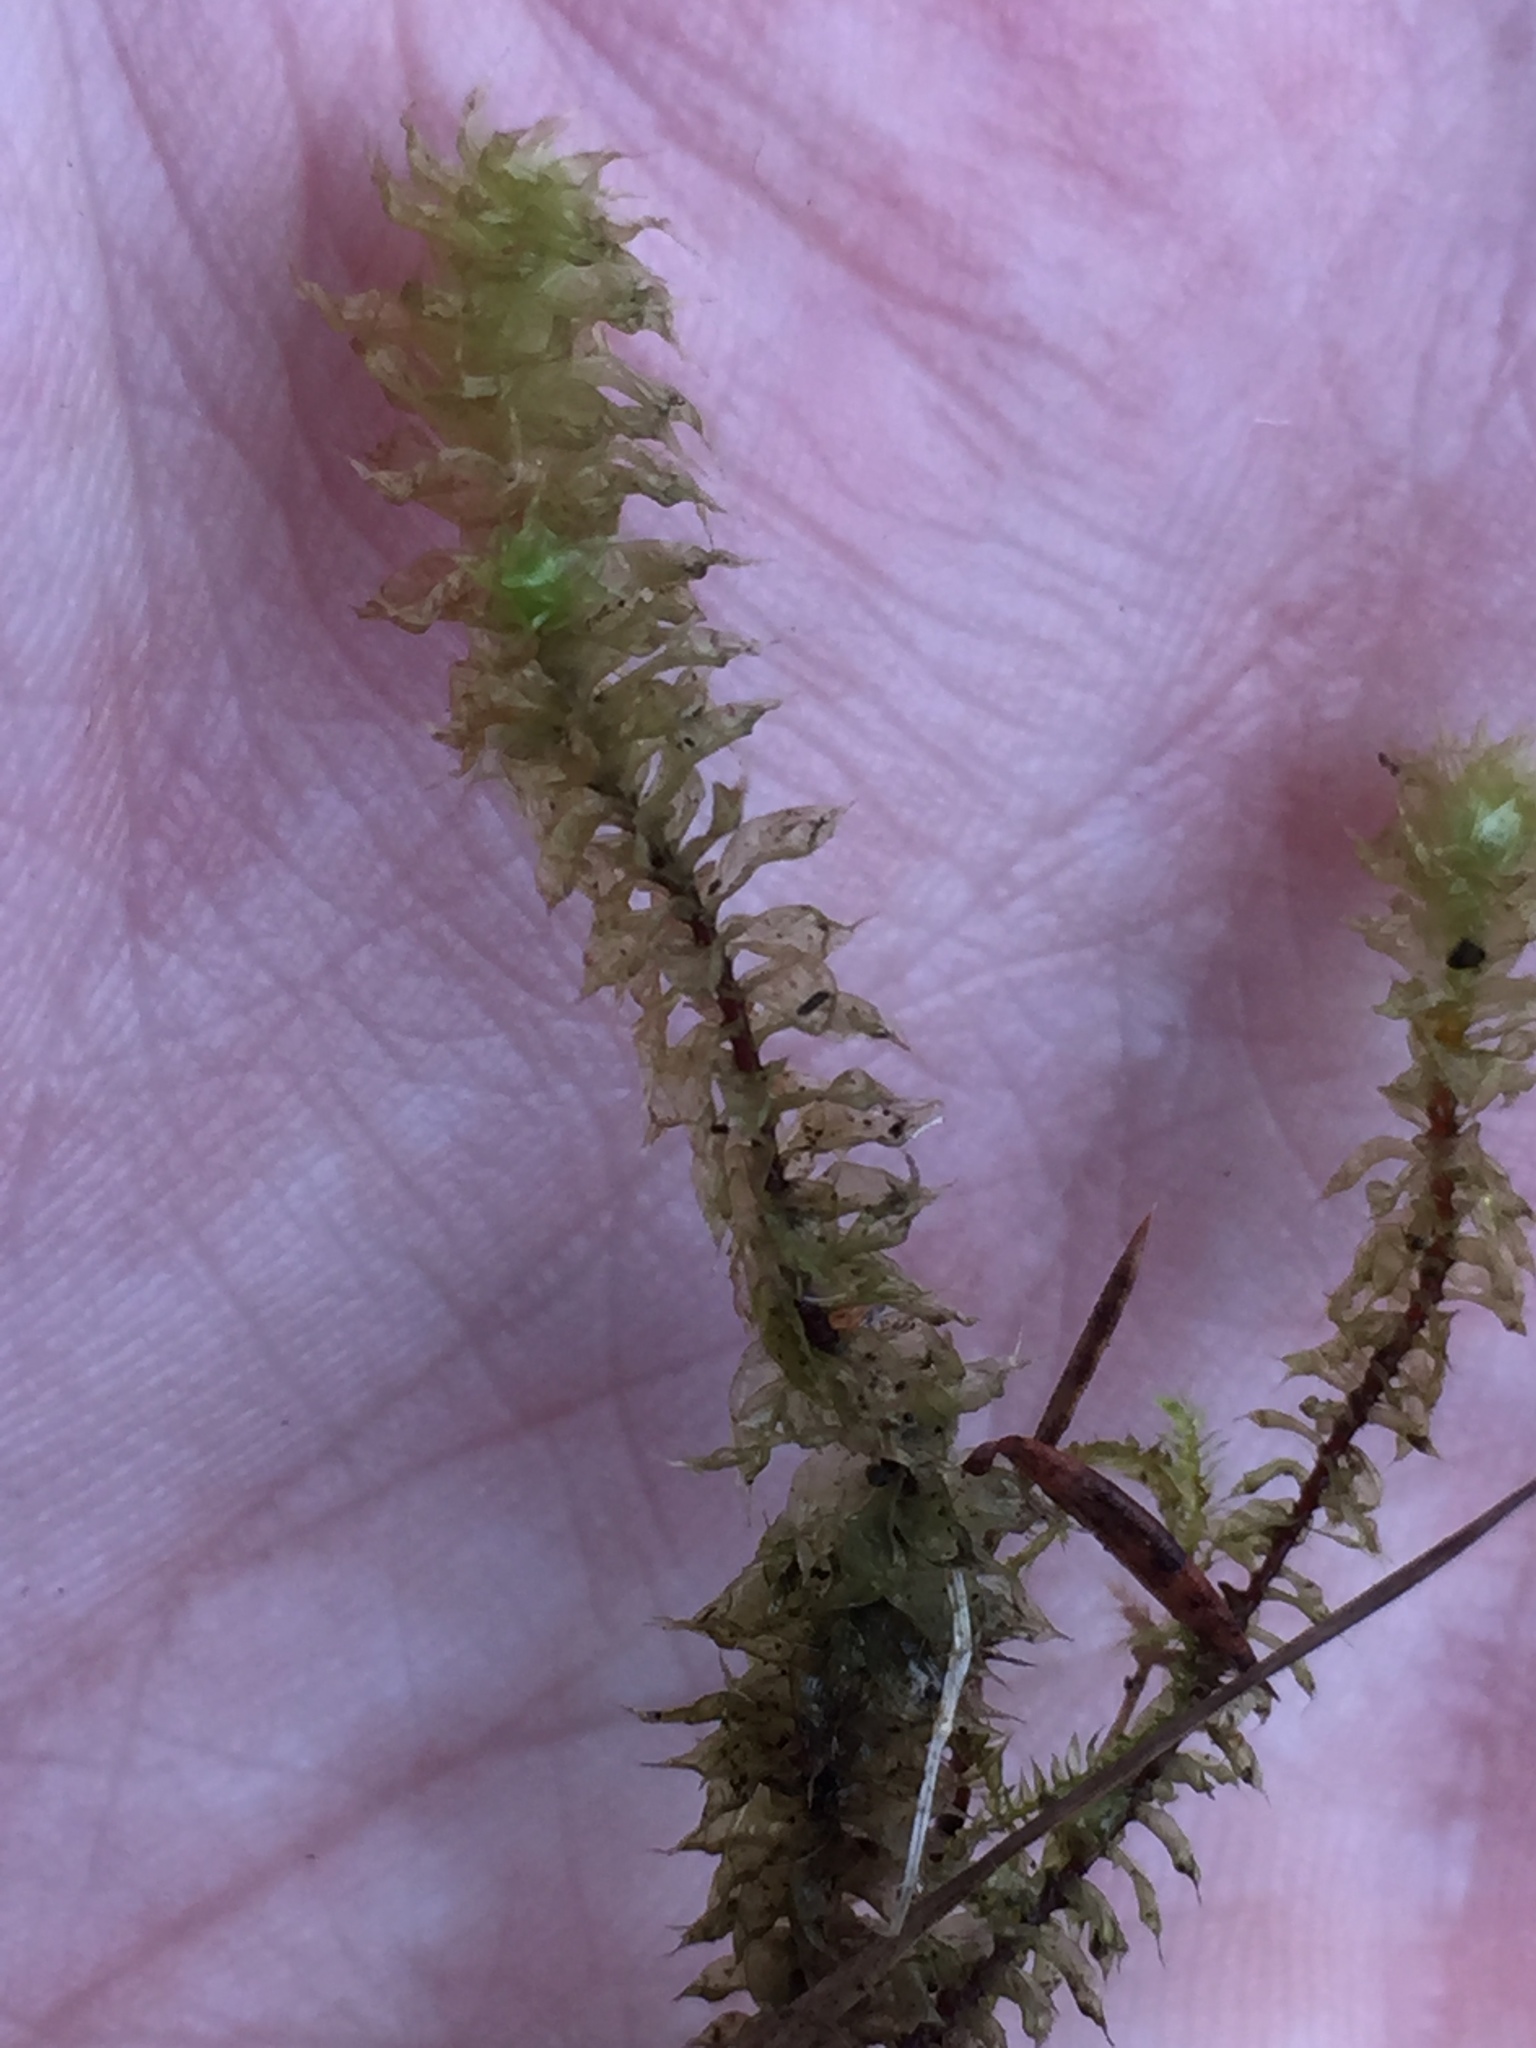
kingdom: Plantae
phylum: Bryophyta
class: Bryopsida
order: Ptychomniales
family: Ptychomniaceae
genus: Ptychomnion
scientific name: Ptychomnion aciculare
